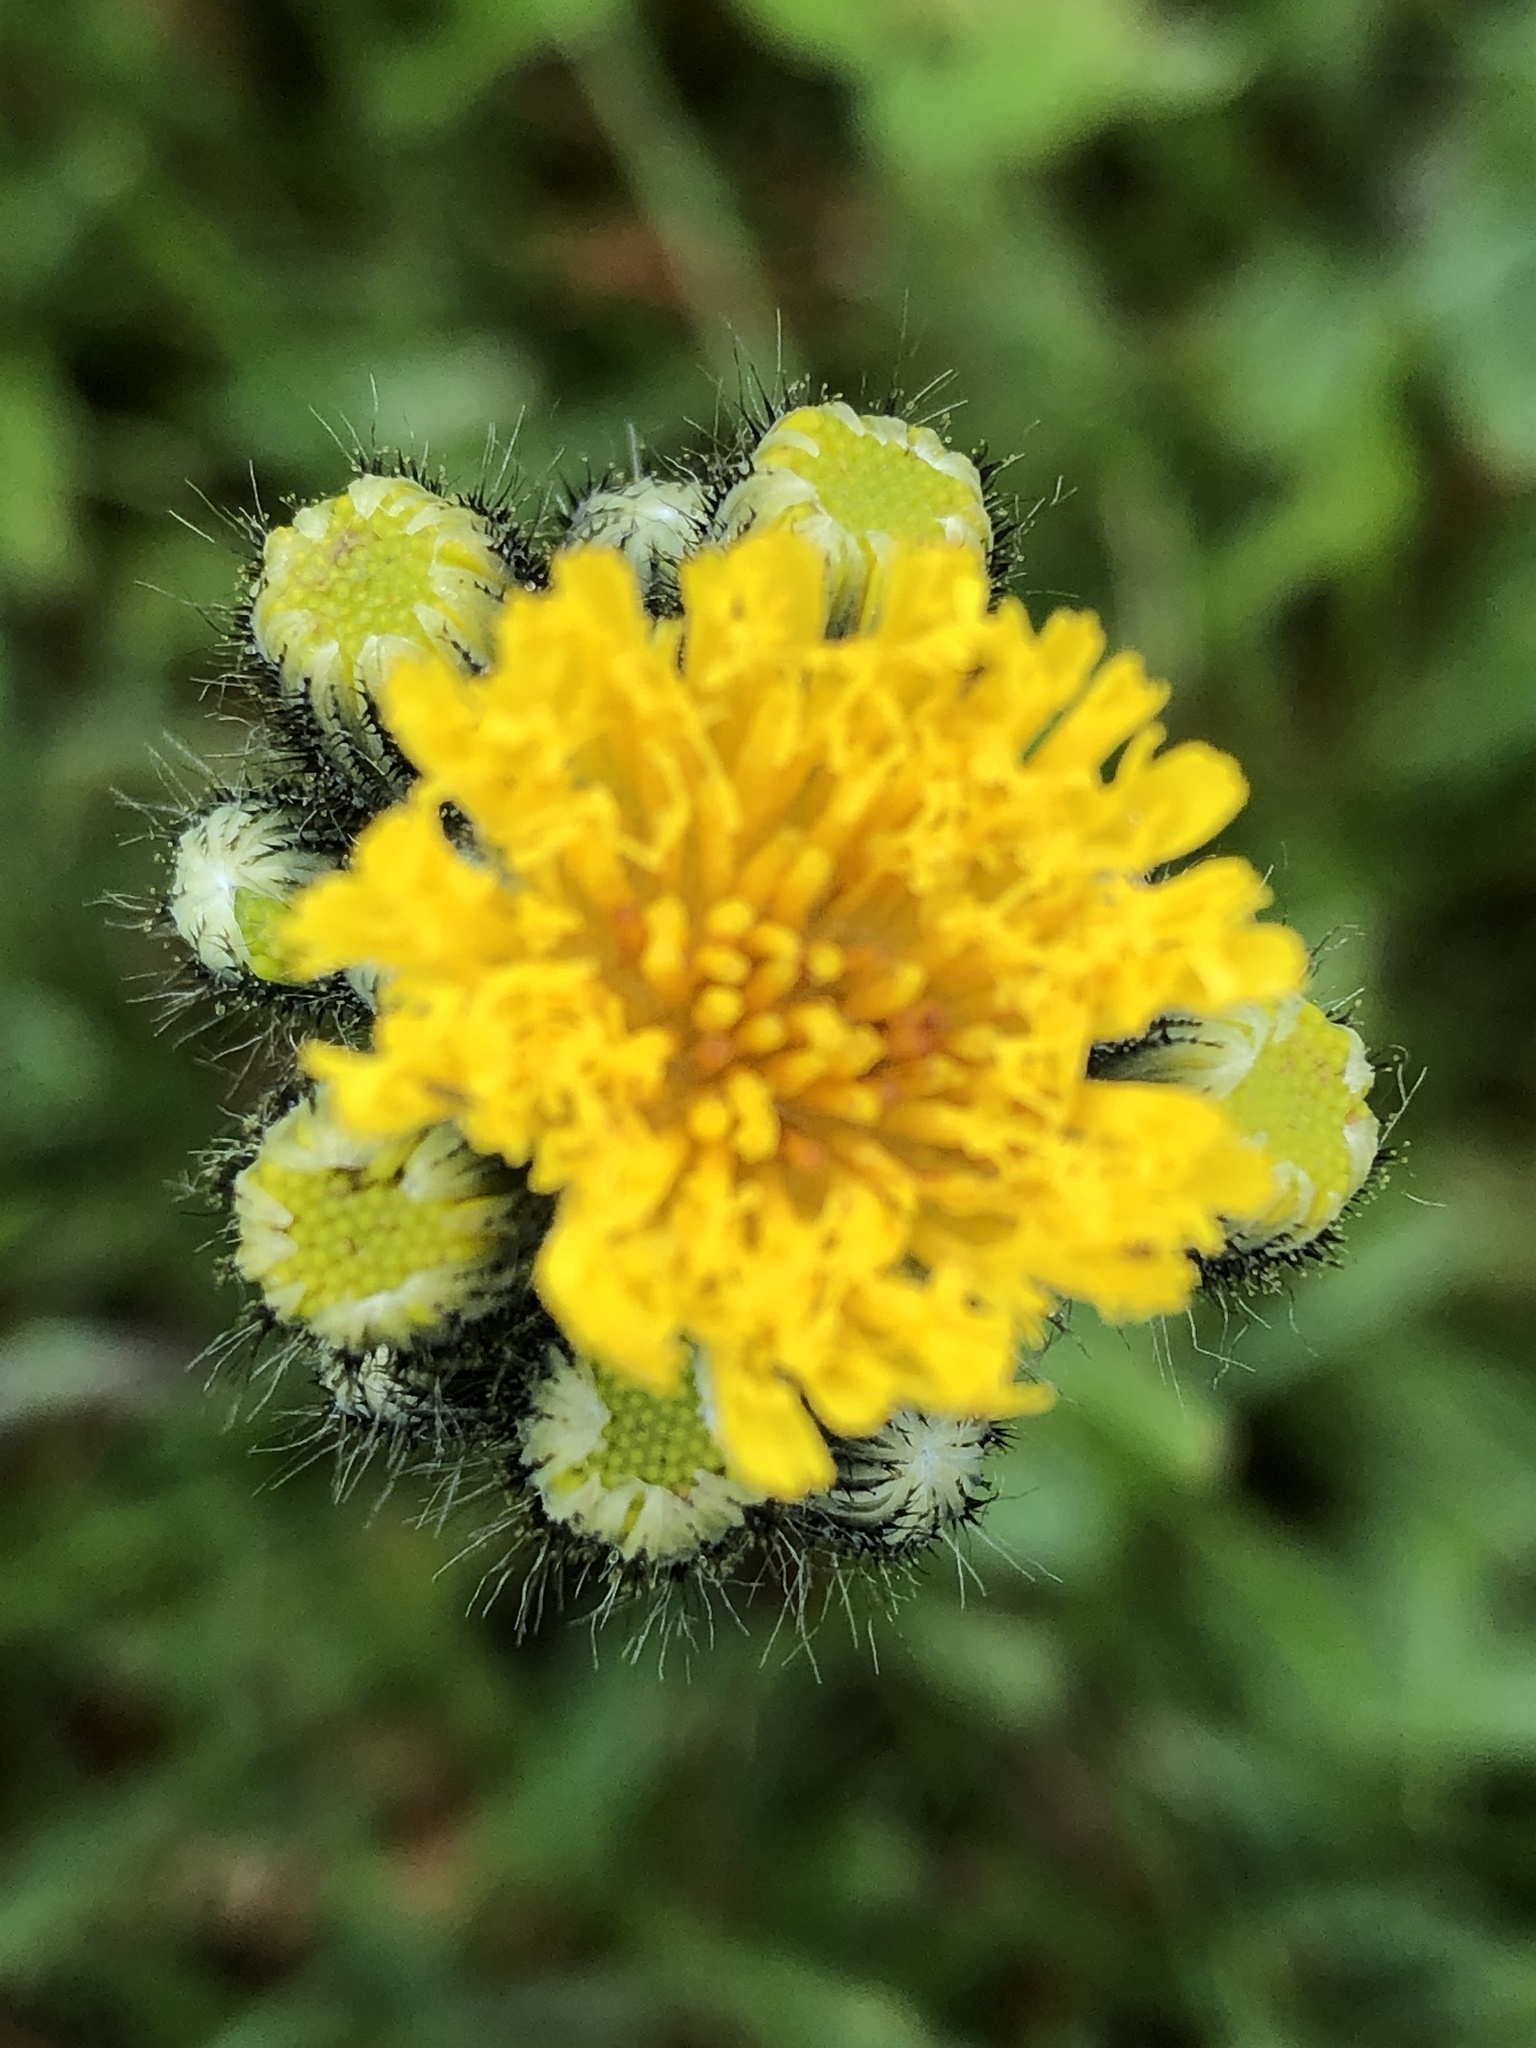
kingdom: Plantae
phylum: Tracheophyta
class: Magnoliopsida
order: Asterales
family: Asteraceae
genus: Pilosella
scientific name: Pilosella caespitosa
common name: Yellow fox-and-cubs
